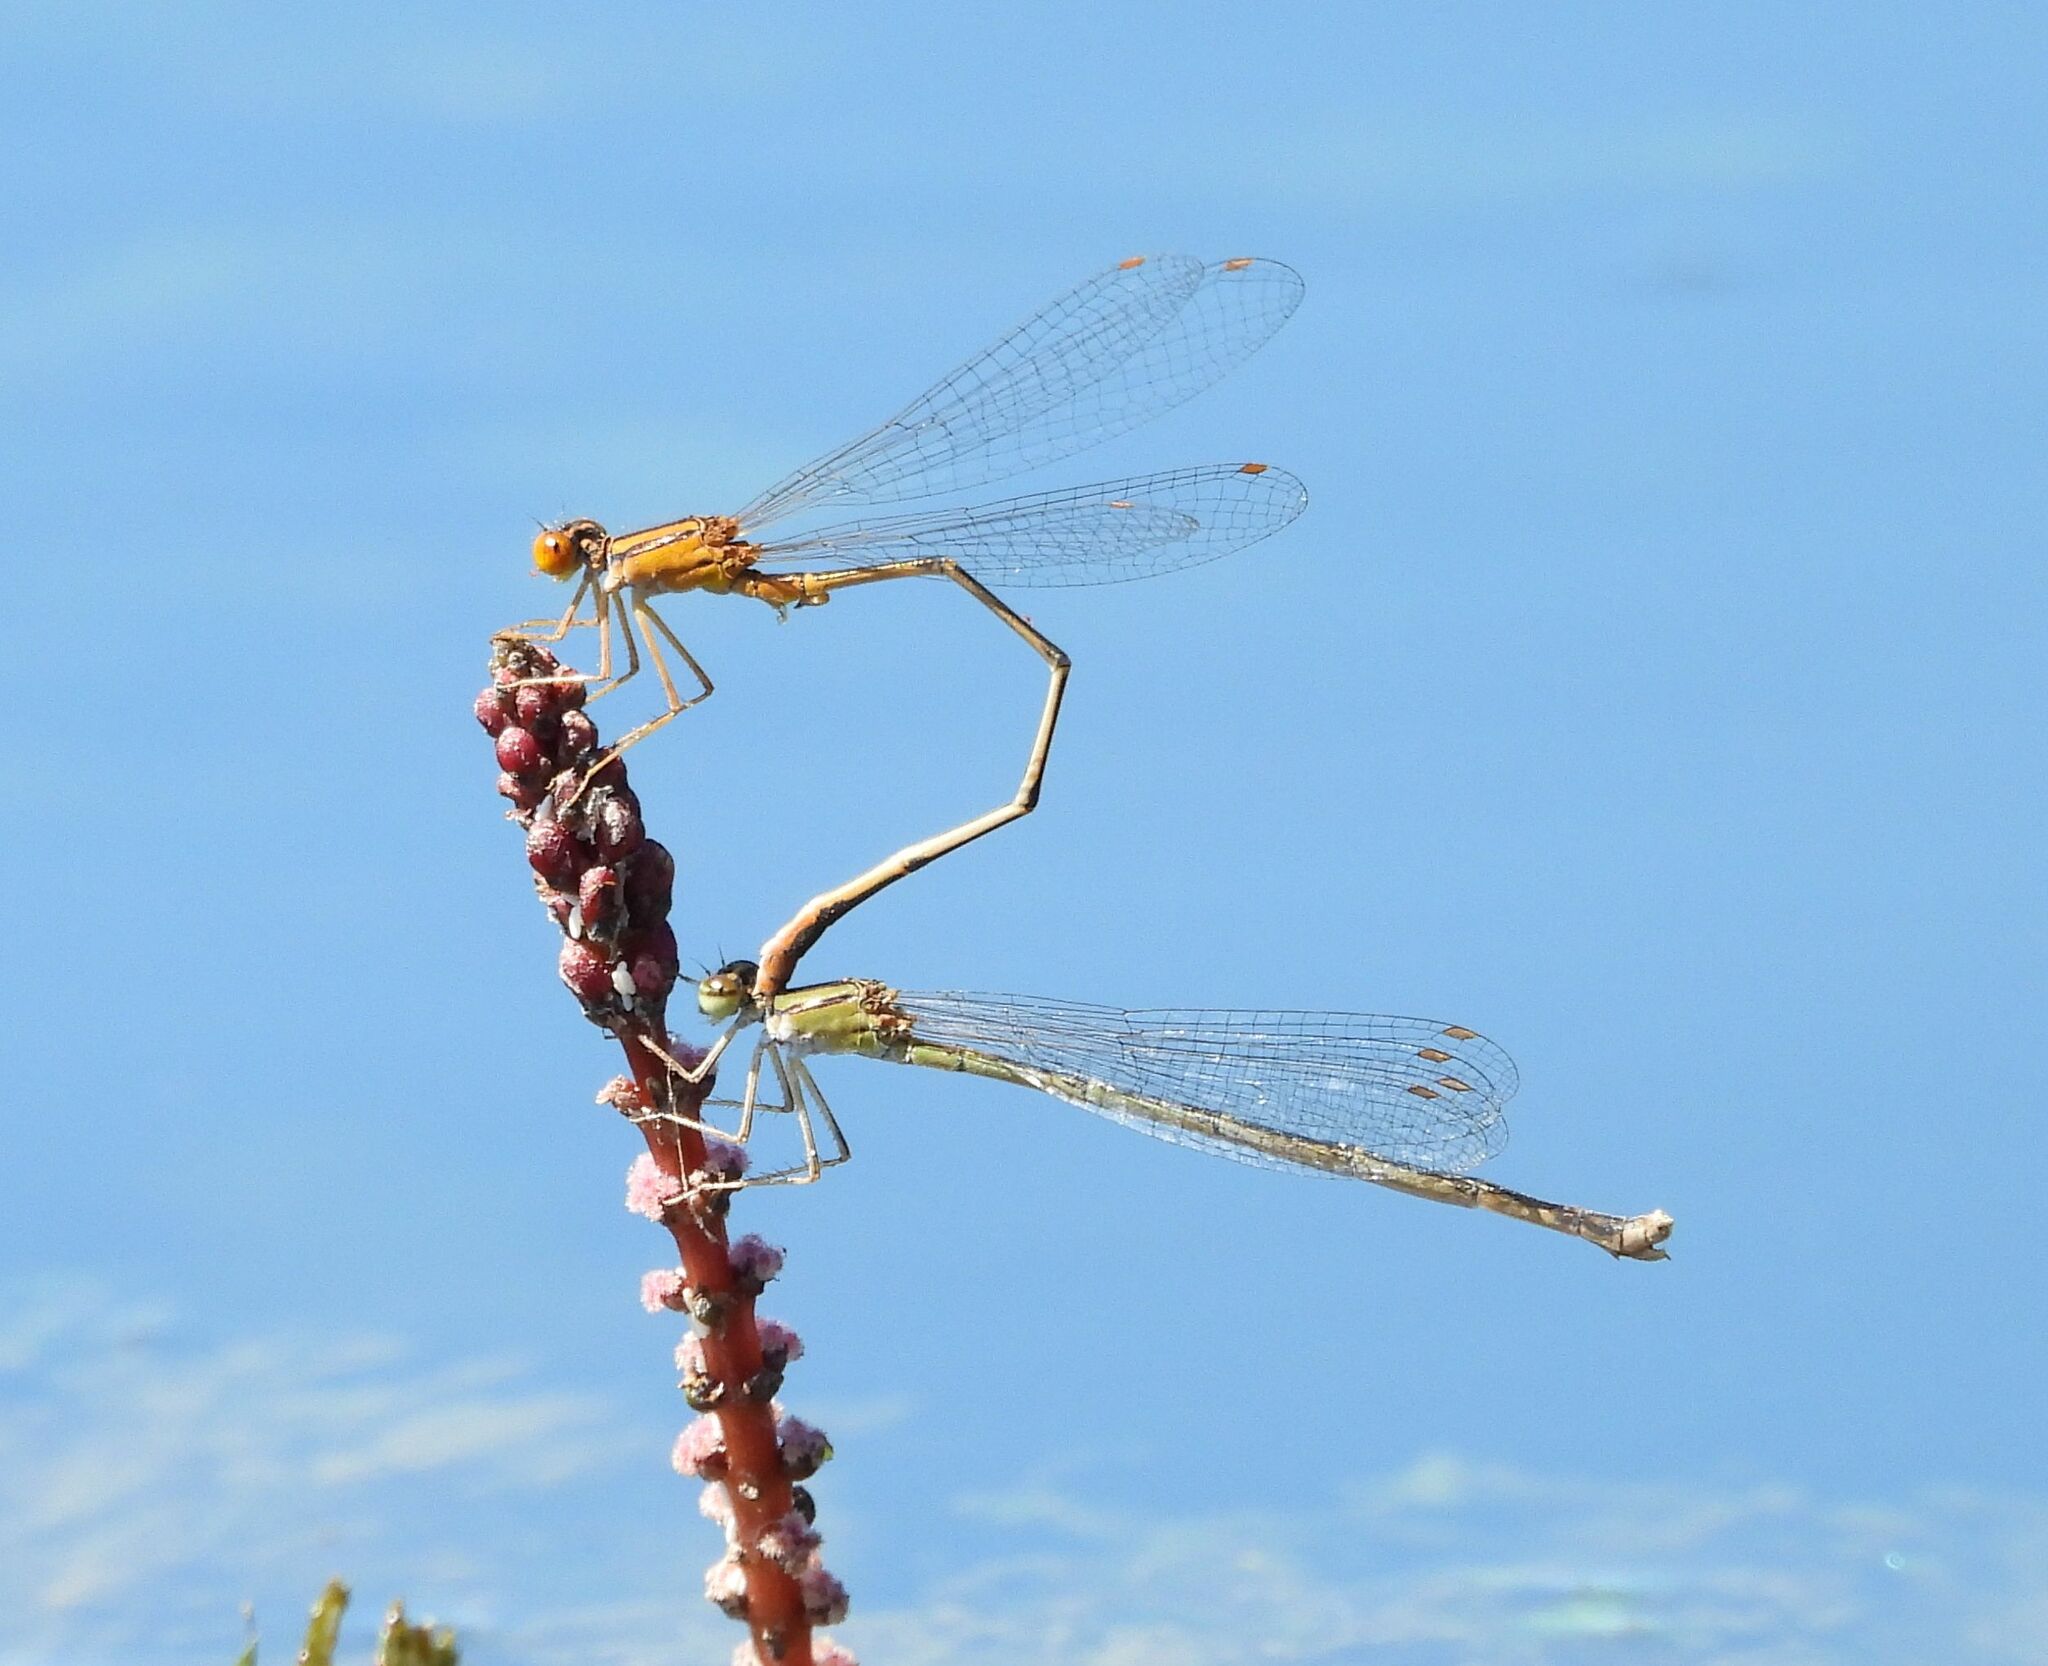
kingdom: Animalia
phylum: Arthropoda
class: Insecta
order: Odonata
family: Coenagrionidae
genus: Enallagma
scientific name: Enallagma signatum
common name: Orange bluet
